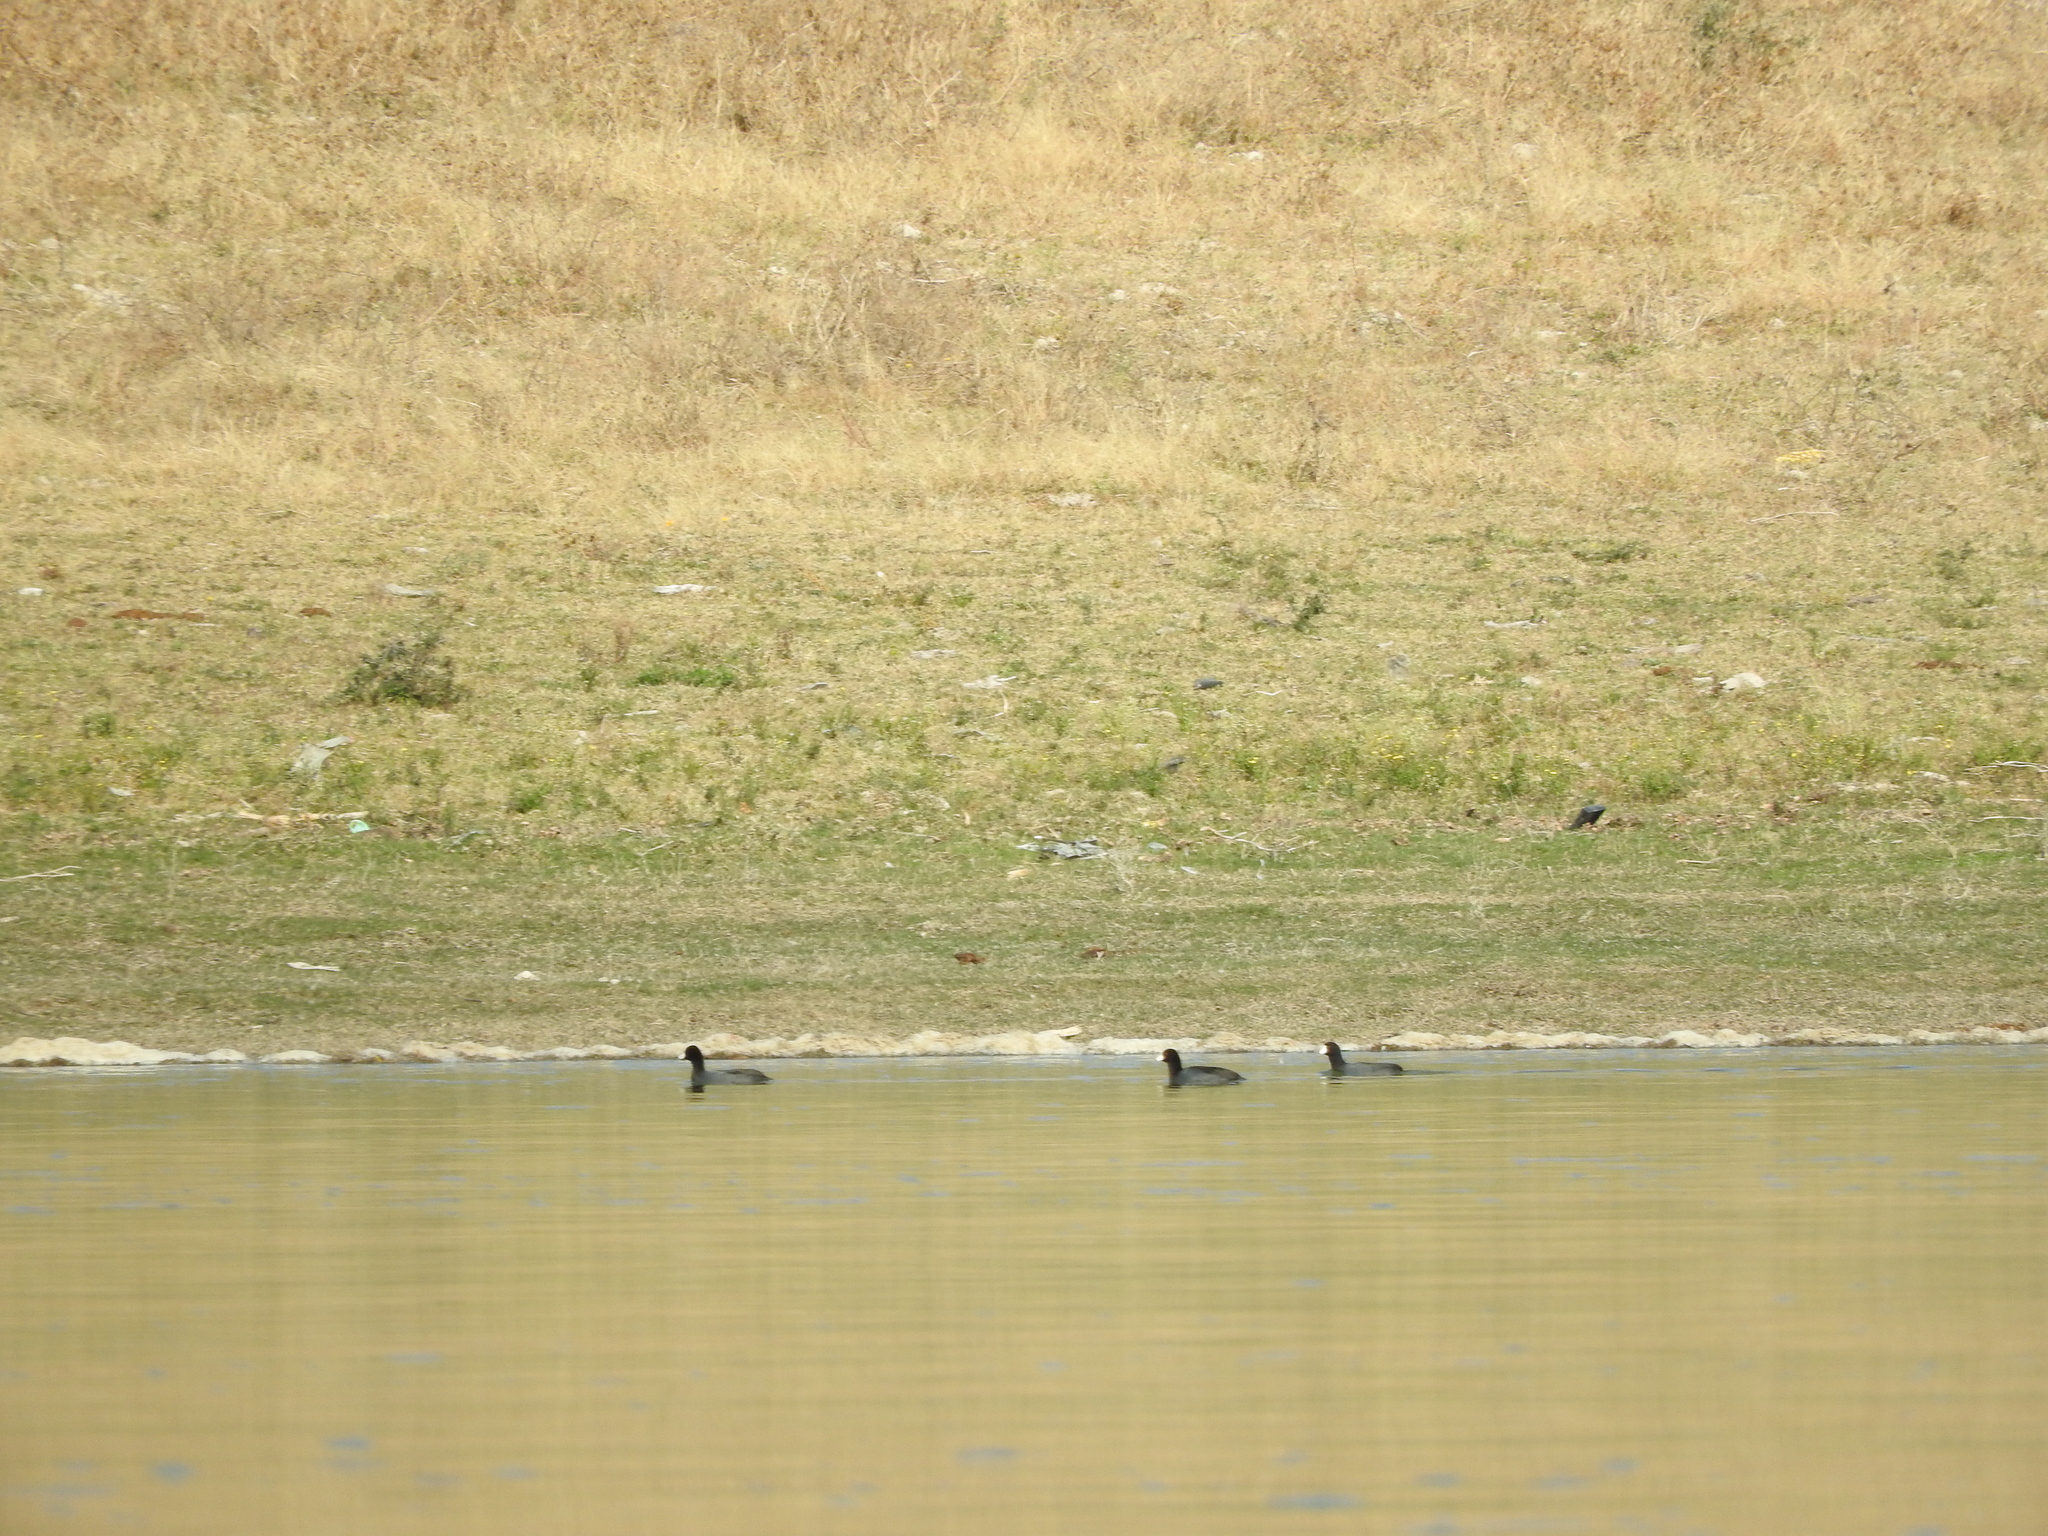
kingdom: Animalia
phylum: Chordata
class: Aves
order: Gruiformes
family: Rallidae
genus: Fulica
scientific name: Fulica americana
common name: American coot
